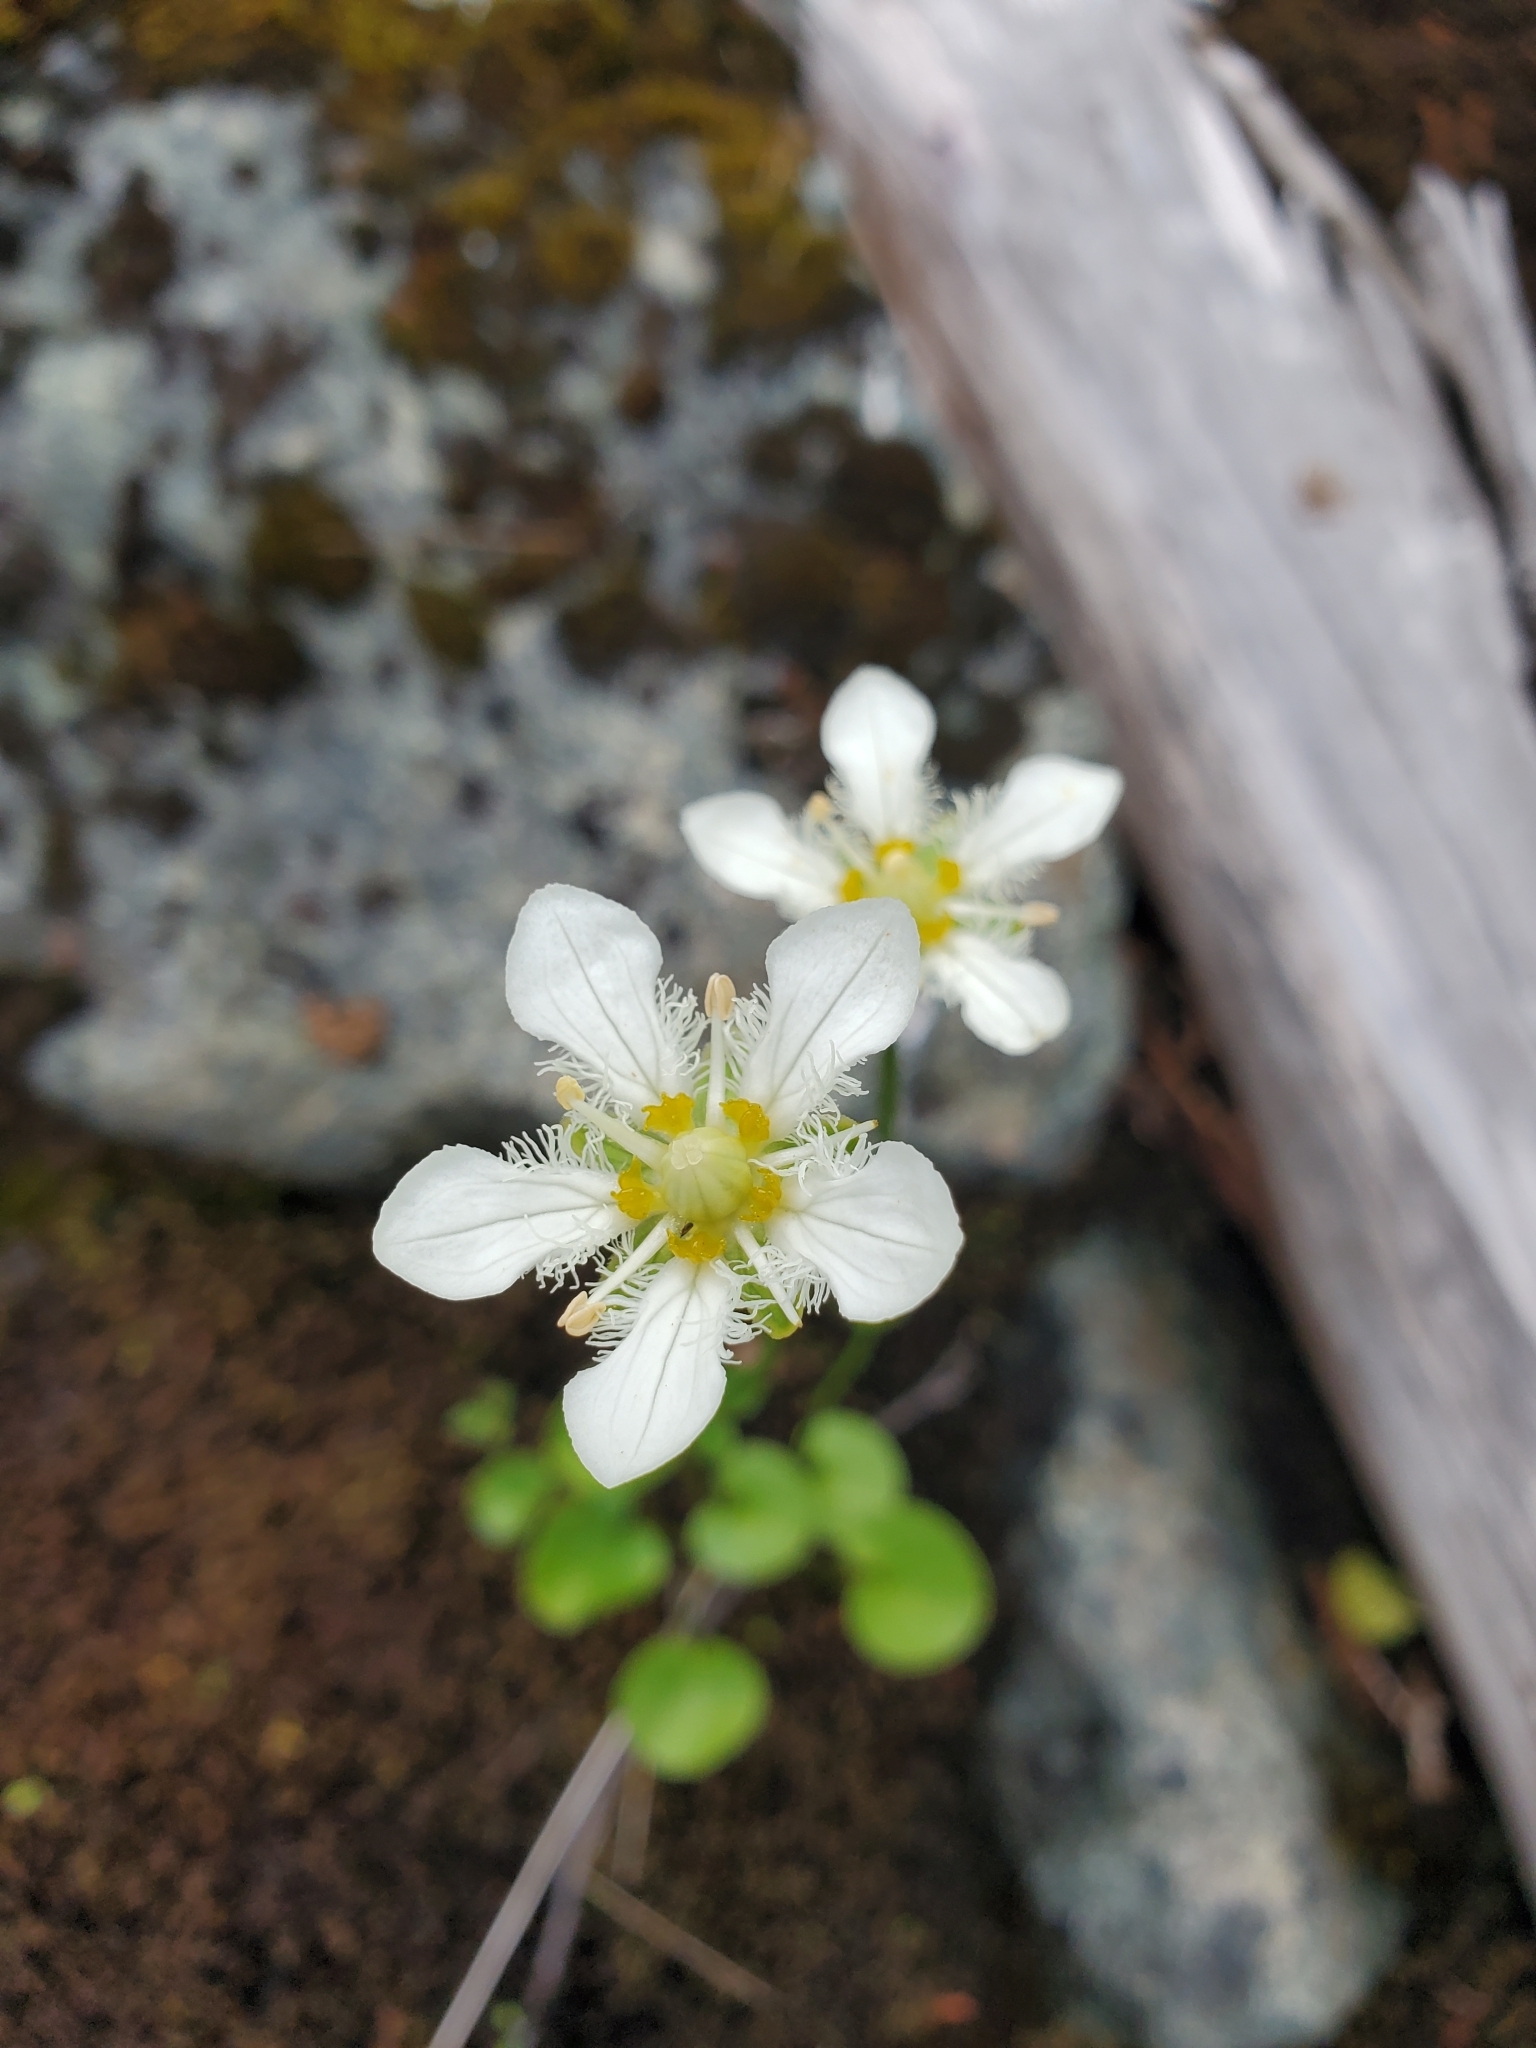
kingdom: Plantae
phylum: Tracheophyta
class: Magnoliopsida
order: Celastrales
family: Parnassiaceae
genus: Parnassia
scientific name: Parnassia fimbriata
